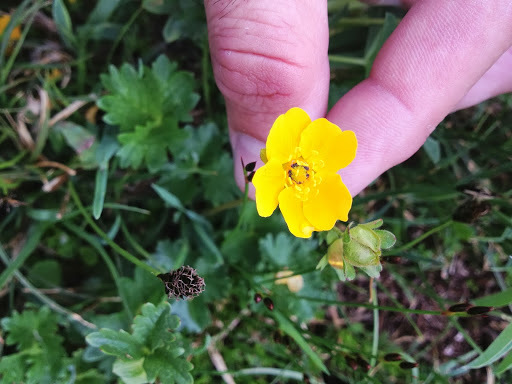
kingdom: Plantae
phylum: Tracheophyta
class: Magnoliopsida
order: Rosales
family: Rosaceae
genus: Potentilla
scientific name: Potentilla flabellifolia
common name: Mount rainier cinquefoil
